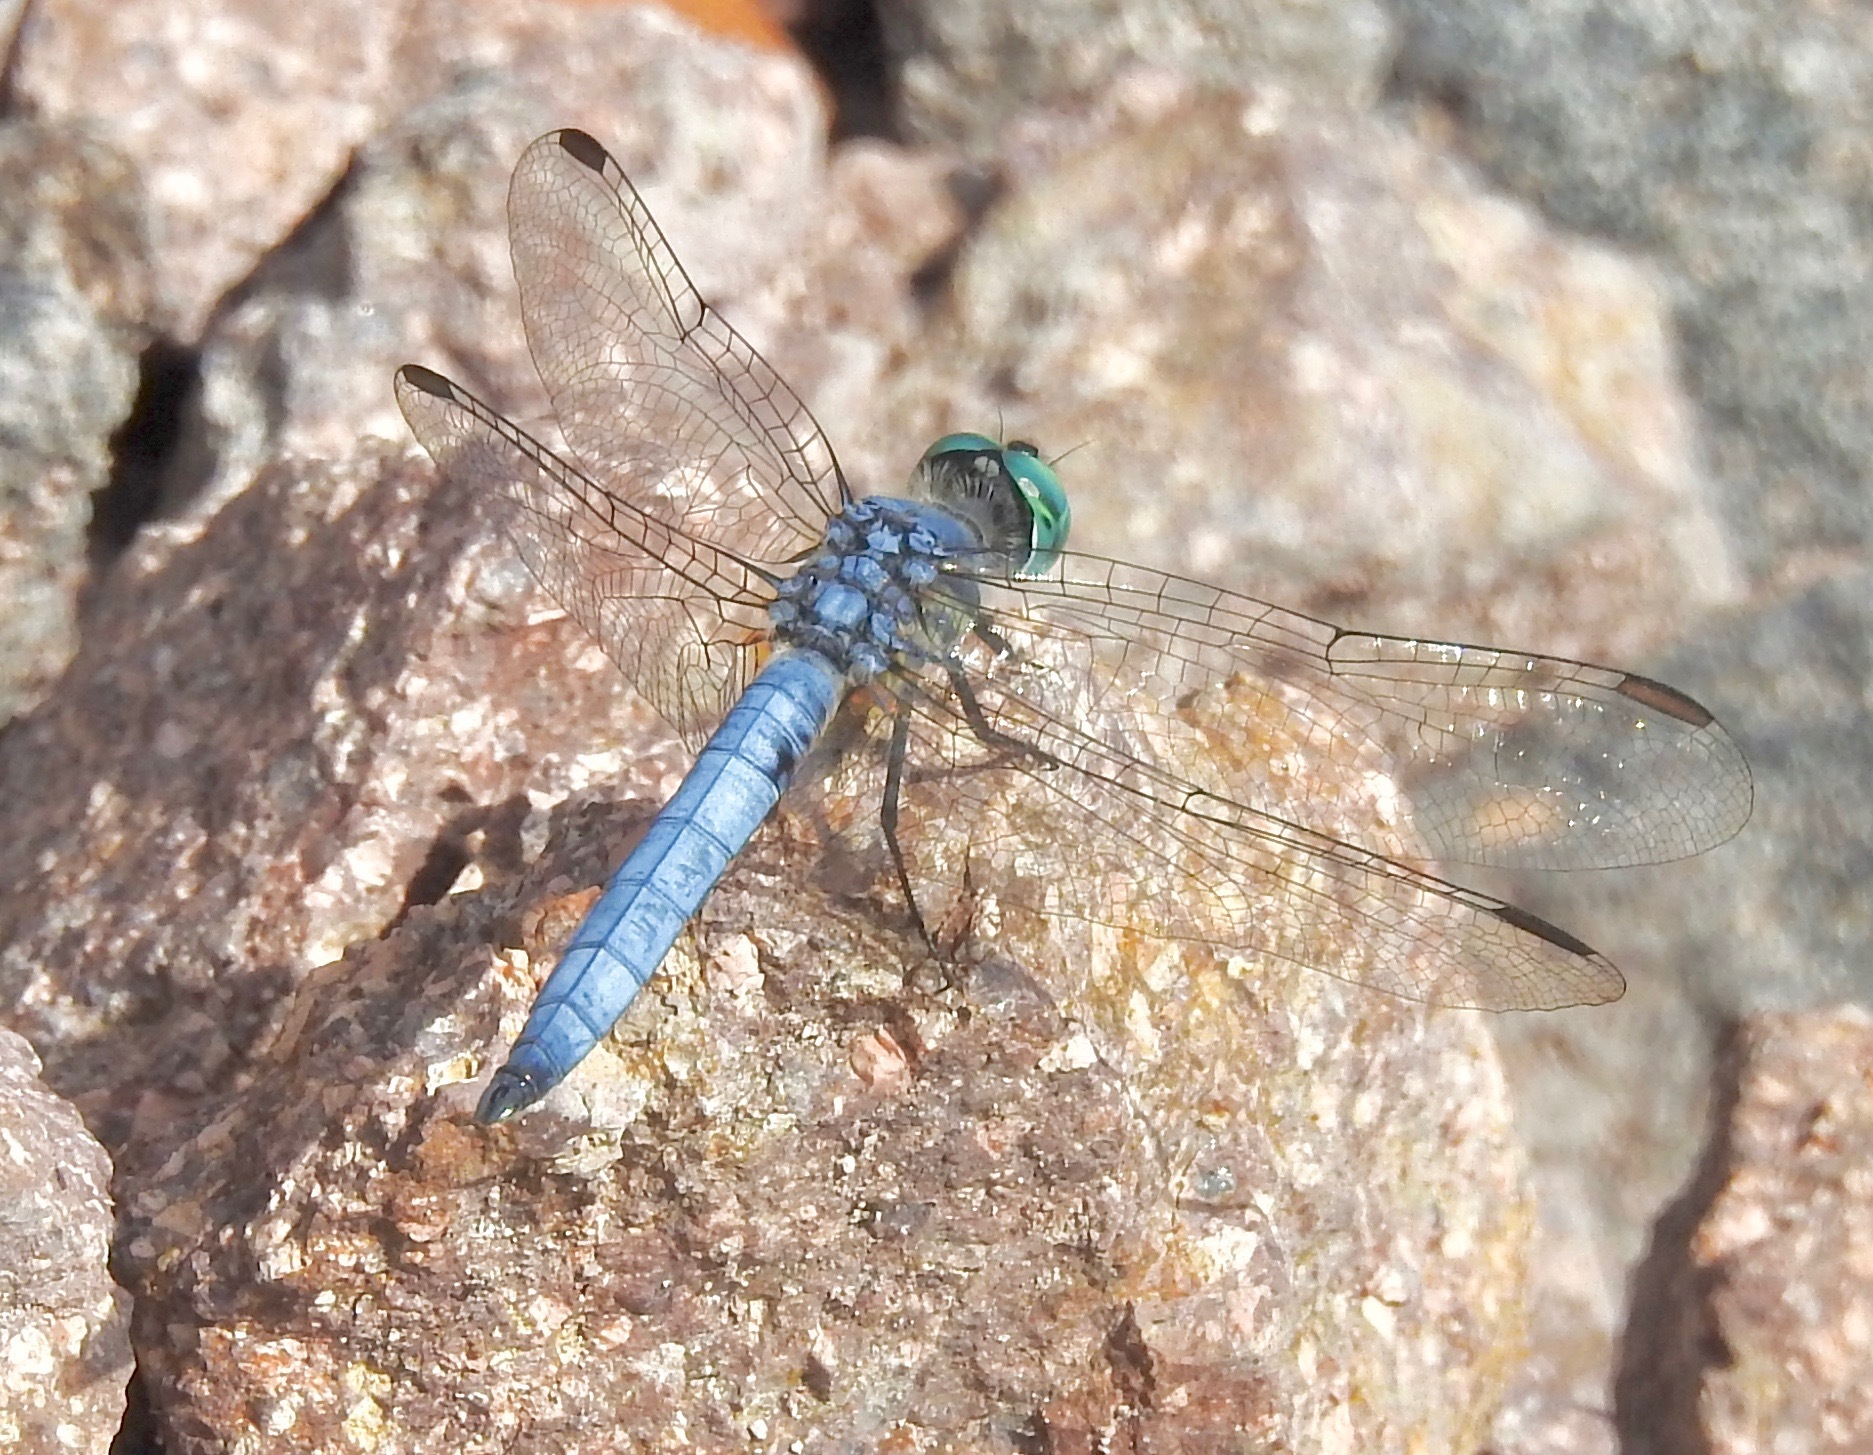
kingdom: Animalia
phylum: Arthropoda
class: Insecta
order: Odonata
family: Libellulidae
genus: Pachydiplax
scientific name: Pachydiplax longipennis
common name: Blue dasher
